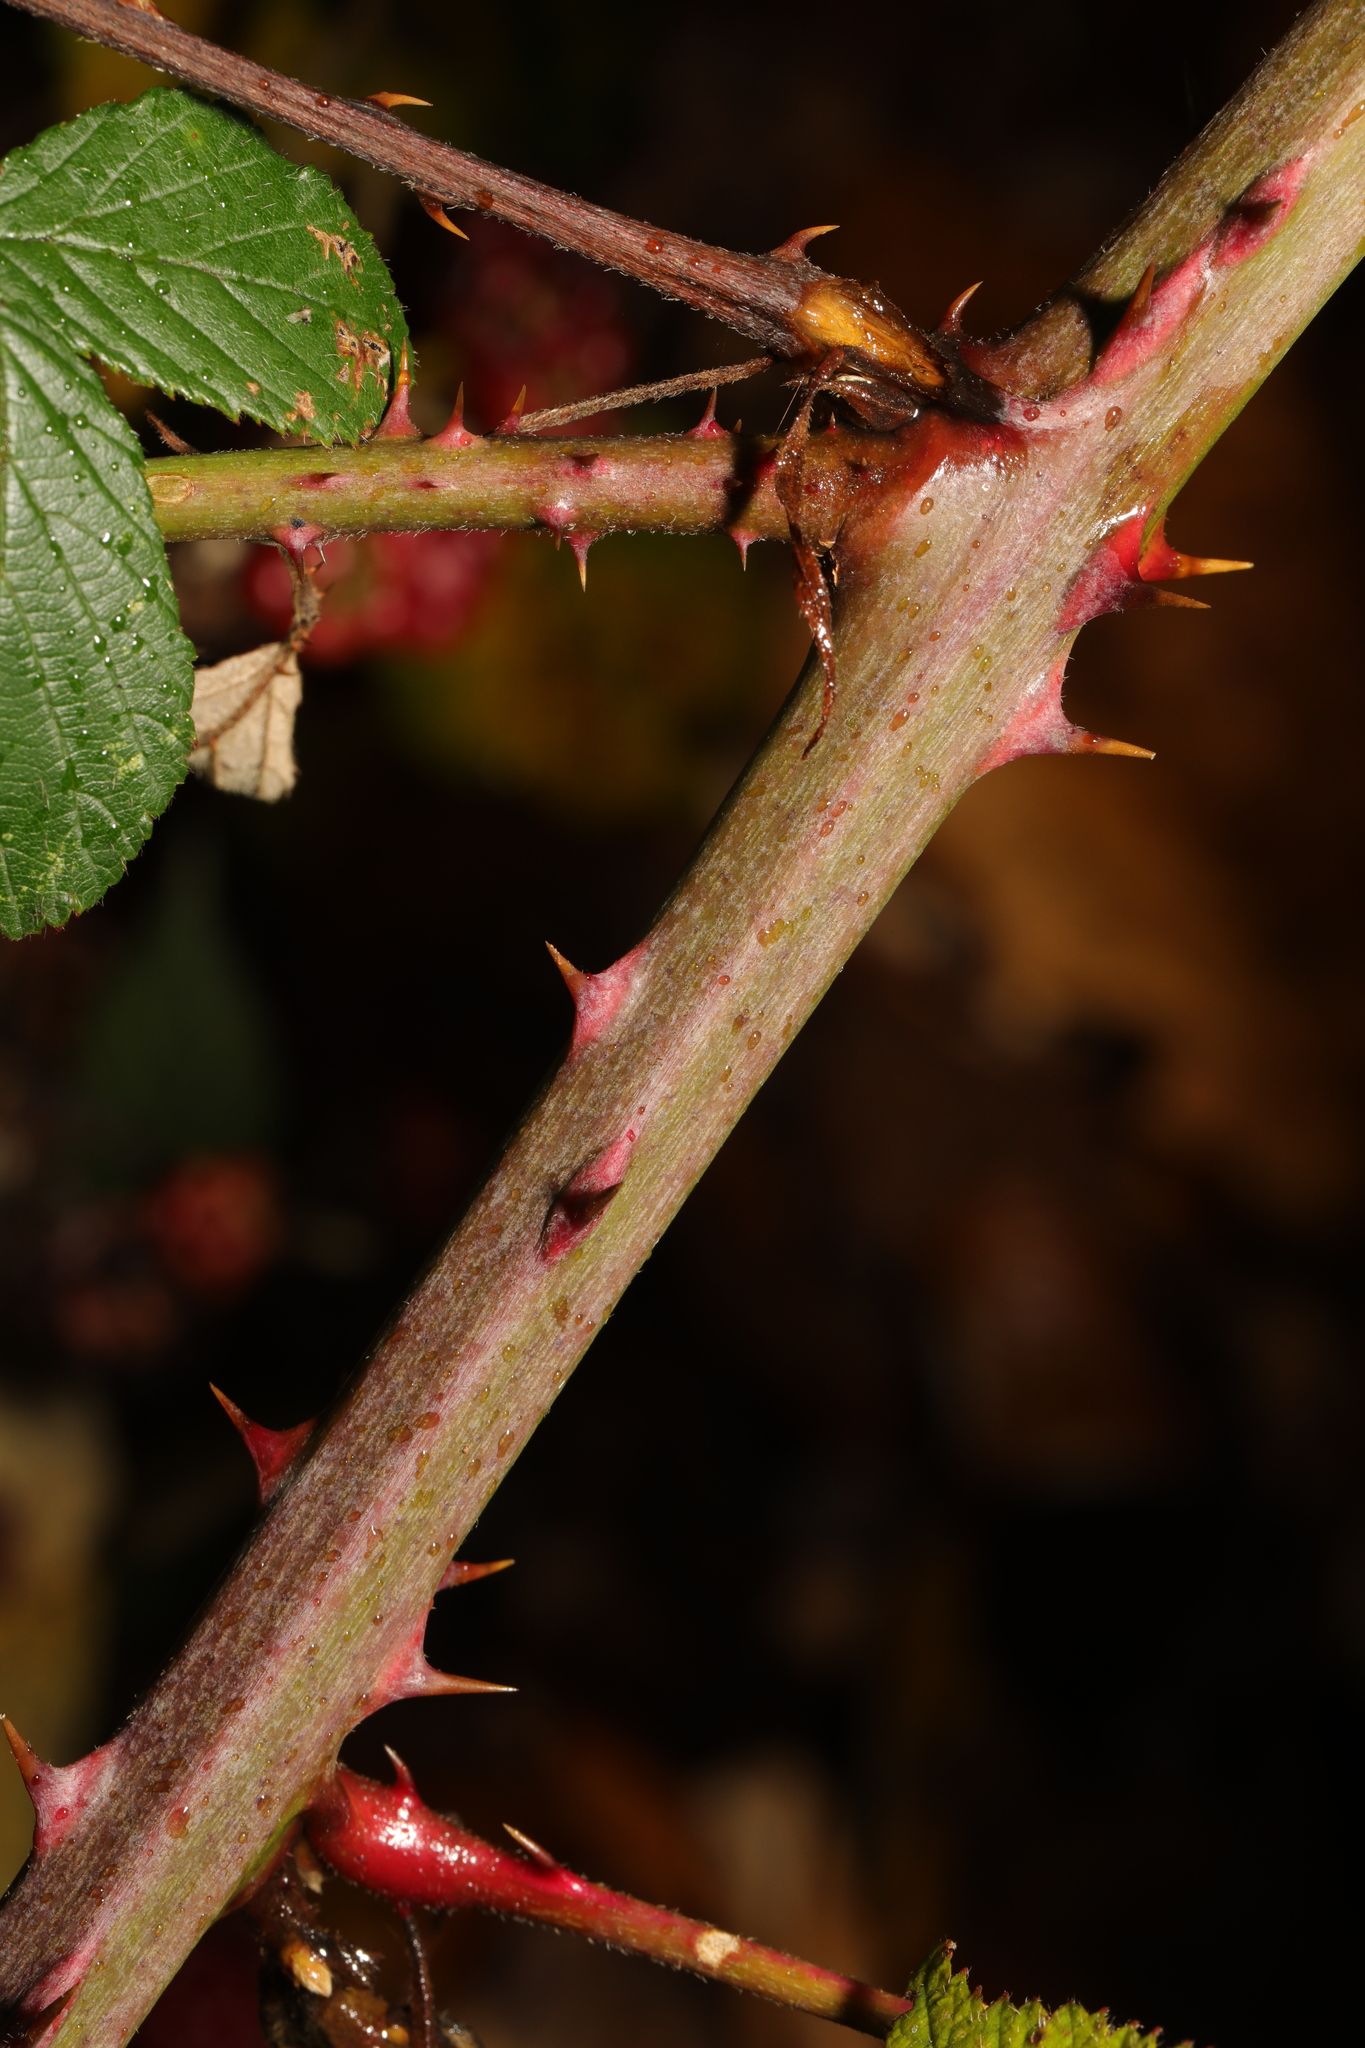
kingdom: Plantae
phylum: Tracheophyta
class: Magnoliopsida
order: Rosales
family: Rosaceae
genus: Rubus
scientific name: Rubus cardiophyllus
